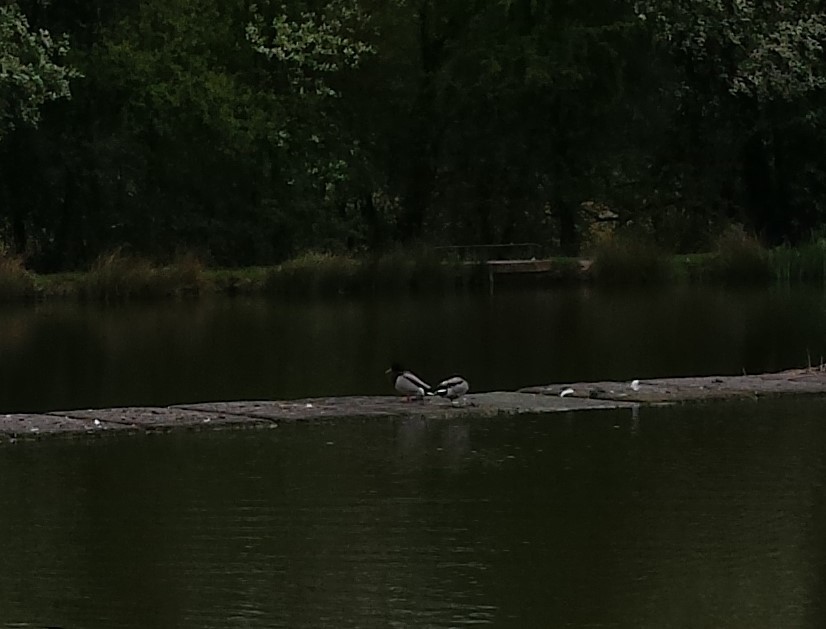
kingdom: Animalia
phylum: Chordata
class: Aves
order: Anseriformes
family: Anatidae
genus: Anas
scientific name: Anas platyrhynchos
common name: Mallard
